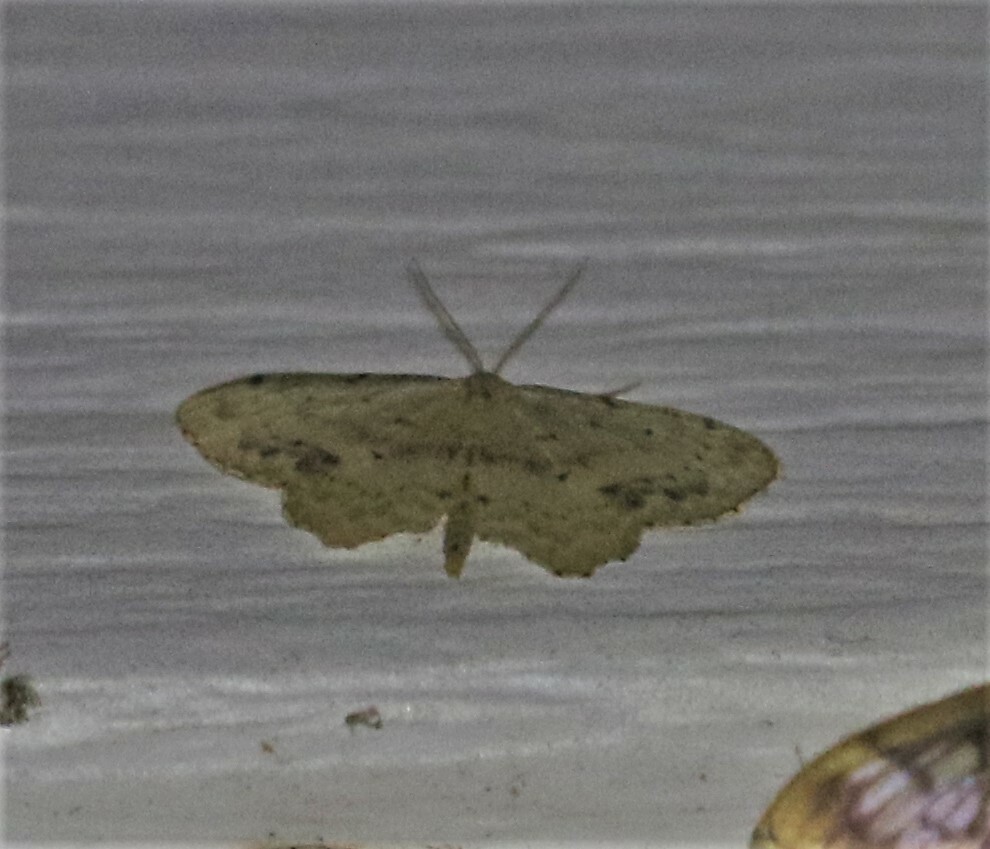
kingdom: Animalia
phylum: Arthropoda
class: Insecta
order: Lepidoptera
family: Geometridae
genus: Idaea
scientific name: Idaea dimidiata
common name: Single-dotted wave
